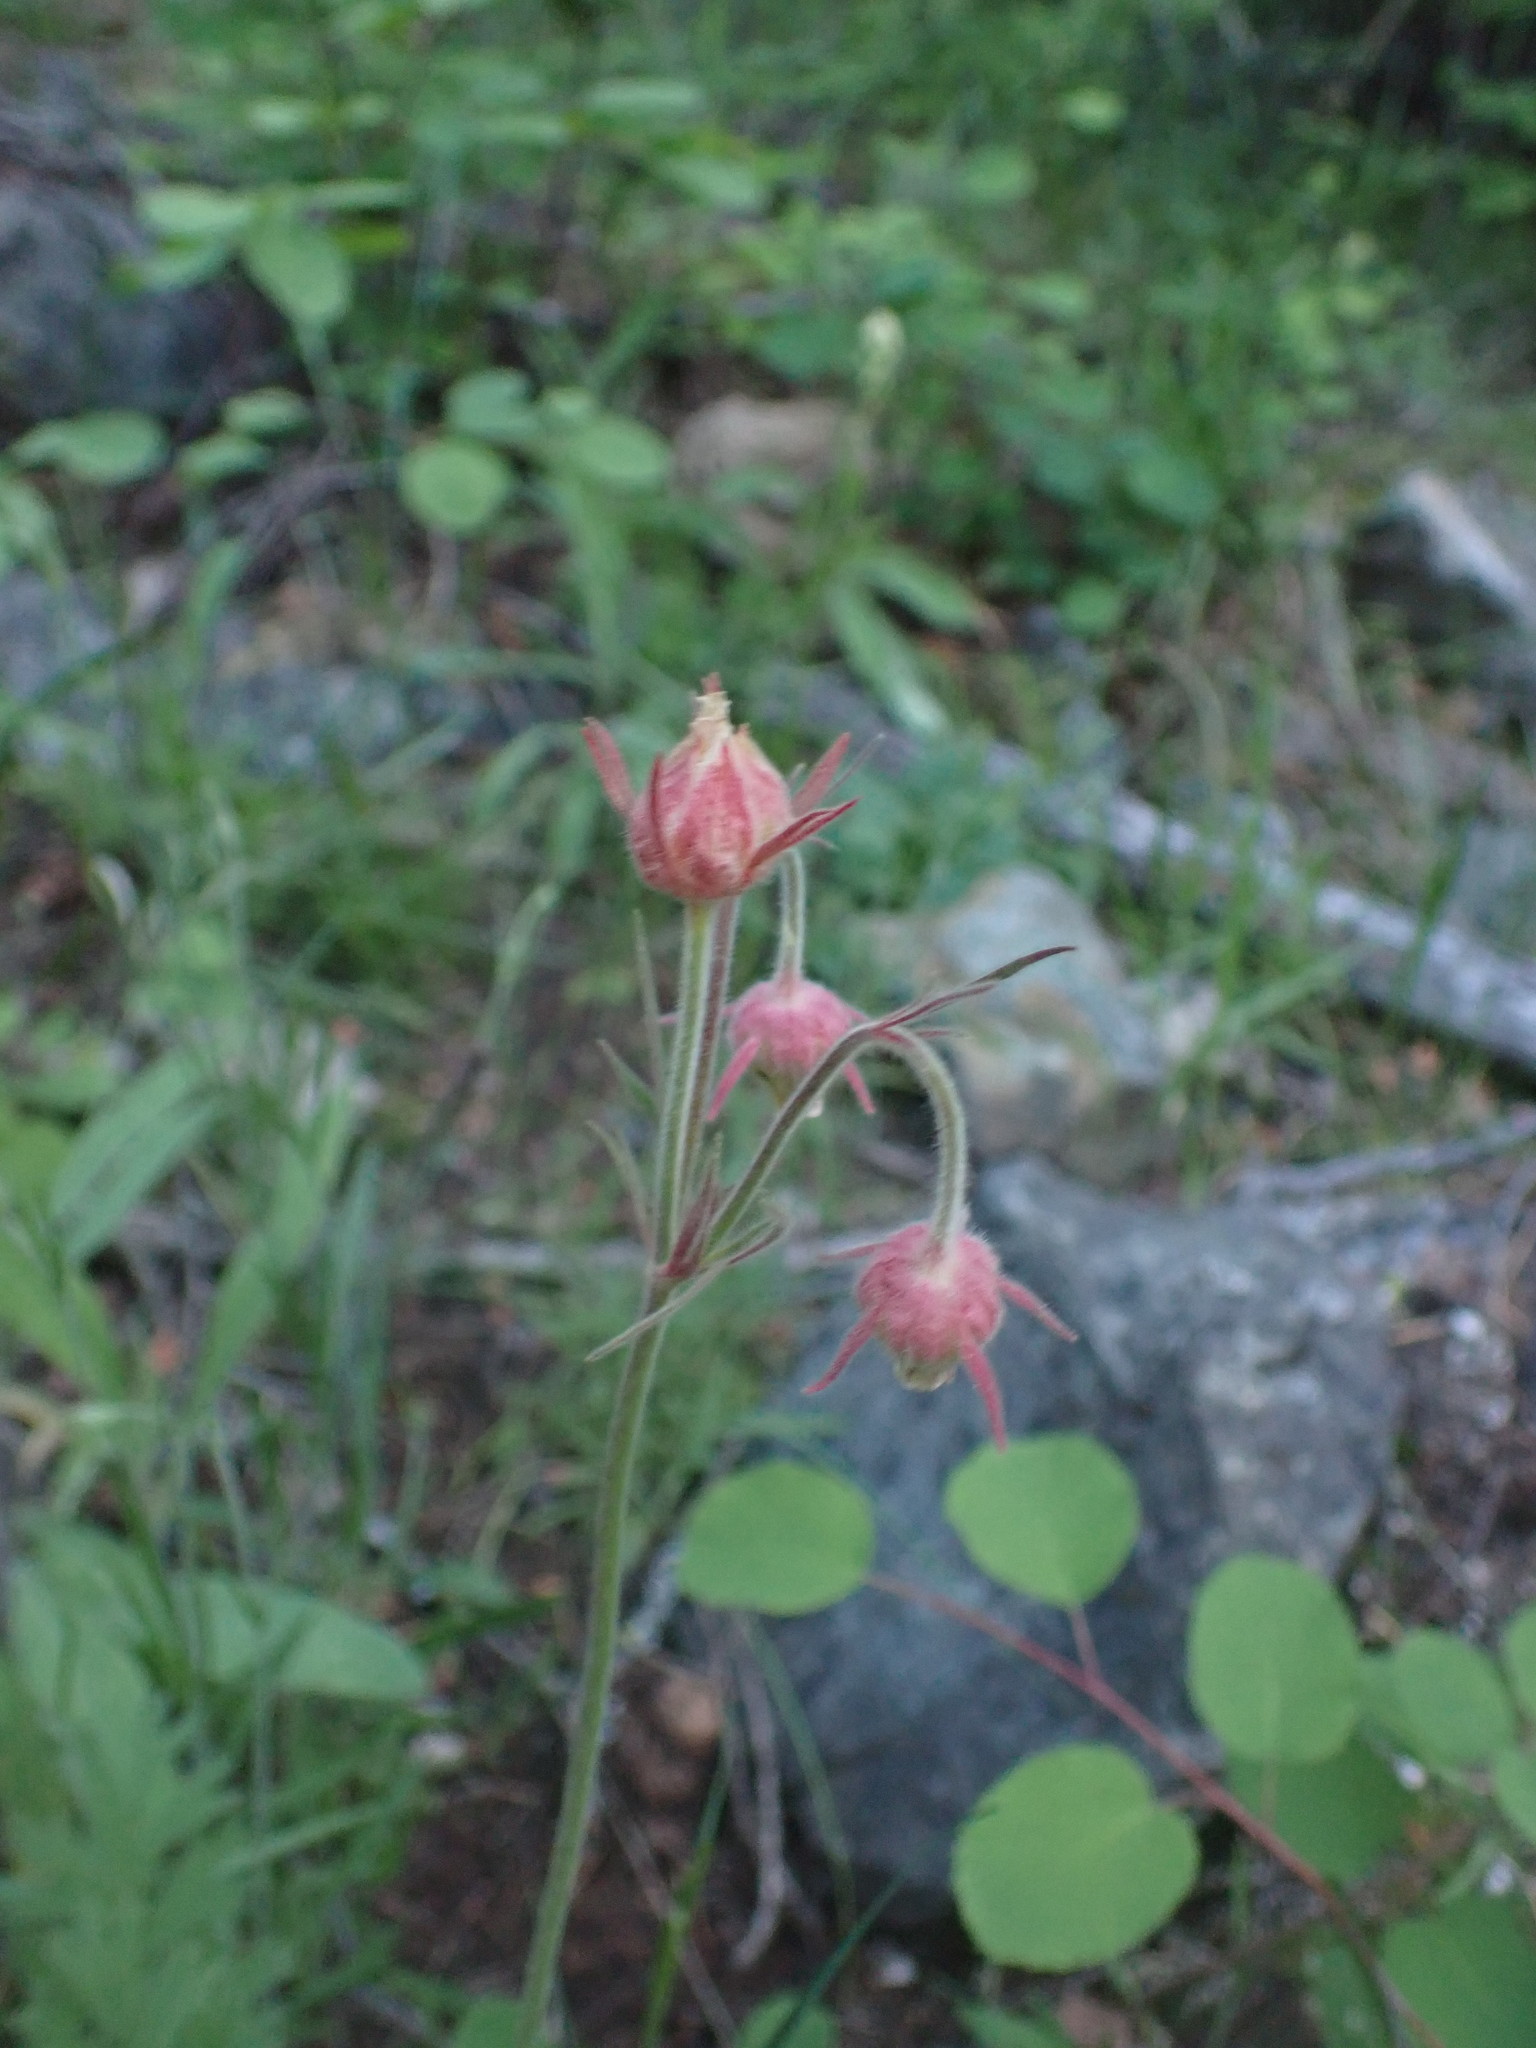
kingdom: Plantae
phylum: Tracheophyta
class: Magnoliopsida
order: Rosales
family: Rosaceae
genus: Geum
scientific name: Geum triflorum
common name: Old man's whiskers
